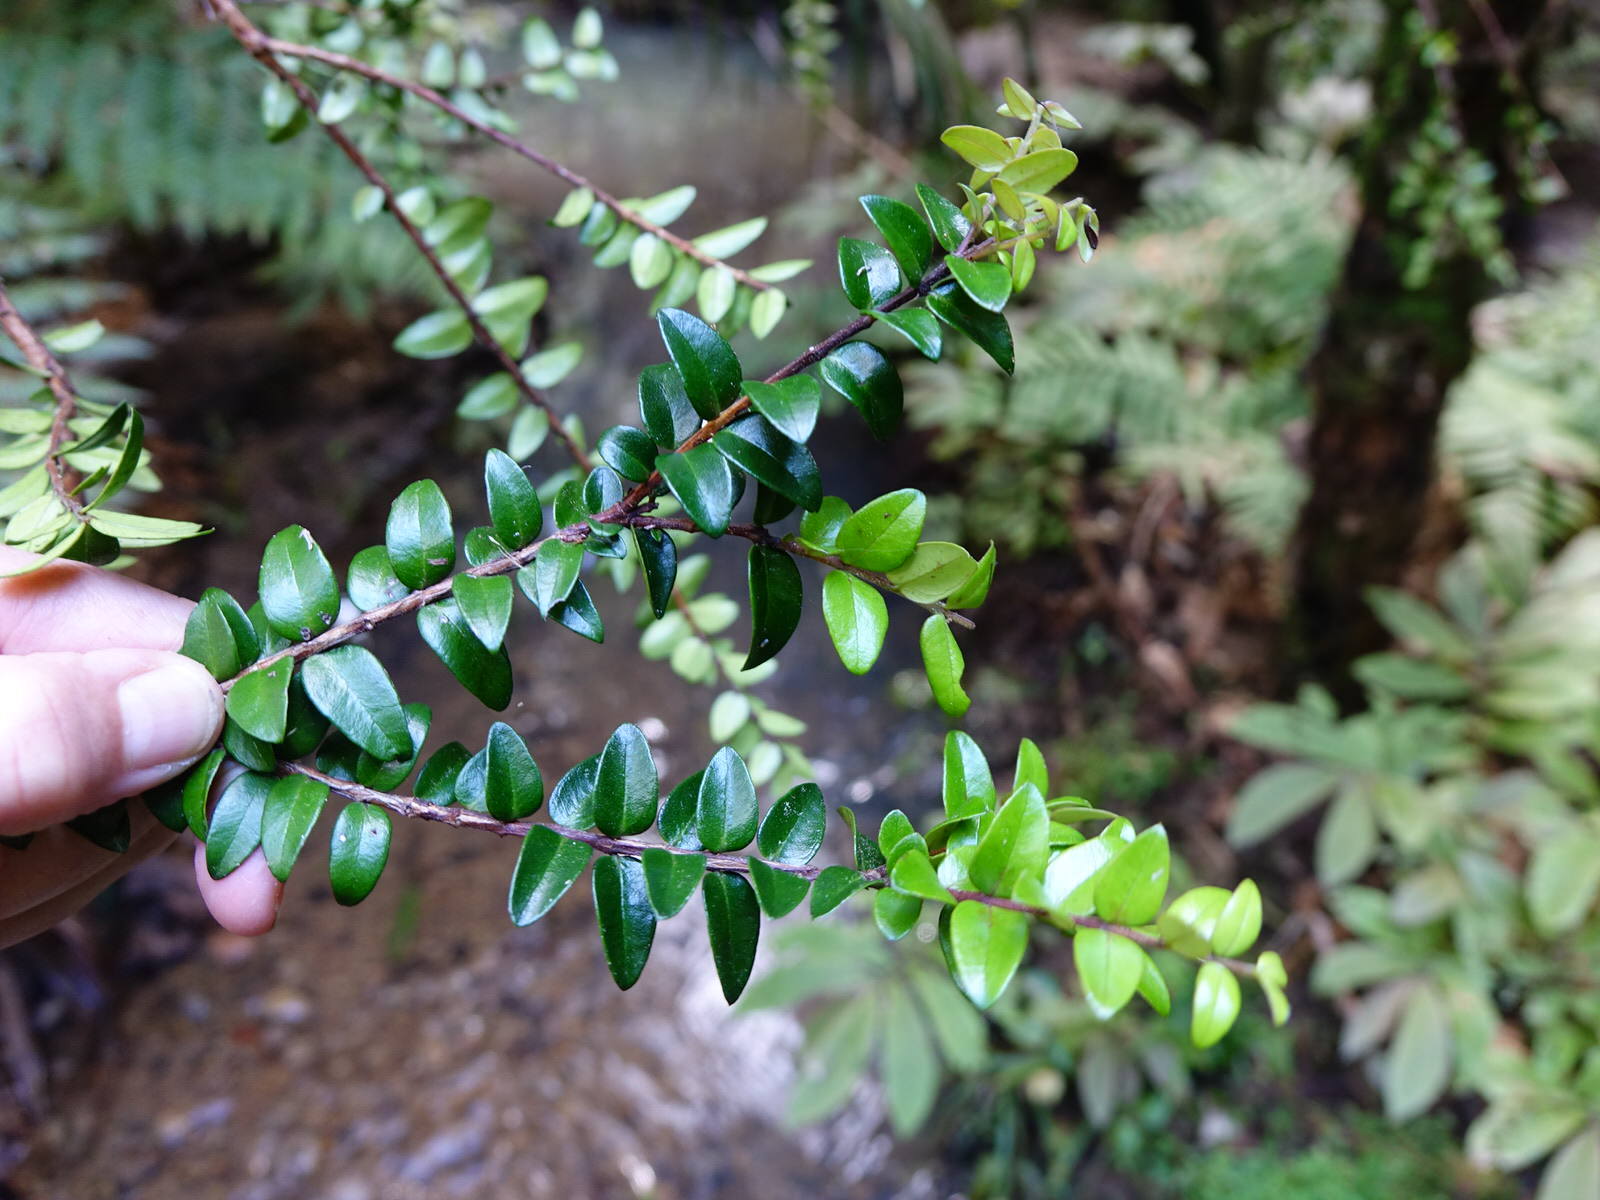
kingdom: Plantae
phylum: Tracheophyta
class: Magnoliopsida
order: Myrtales
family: Myrtaceae
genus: Metrosideros
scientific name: Metrosideros diffusa
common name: Small ratavine
